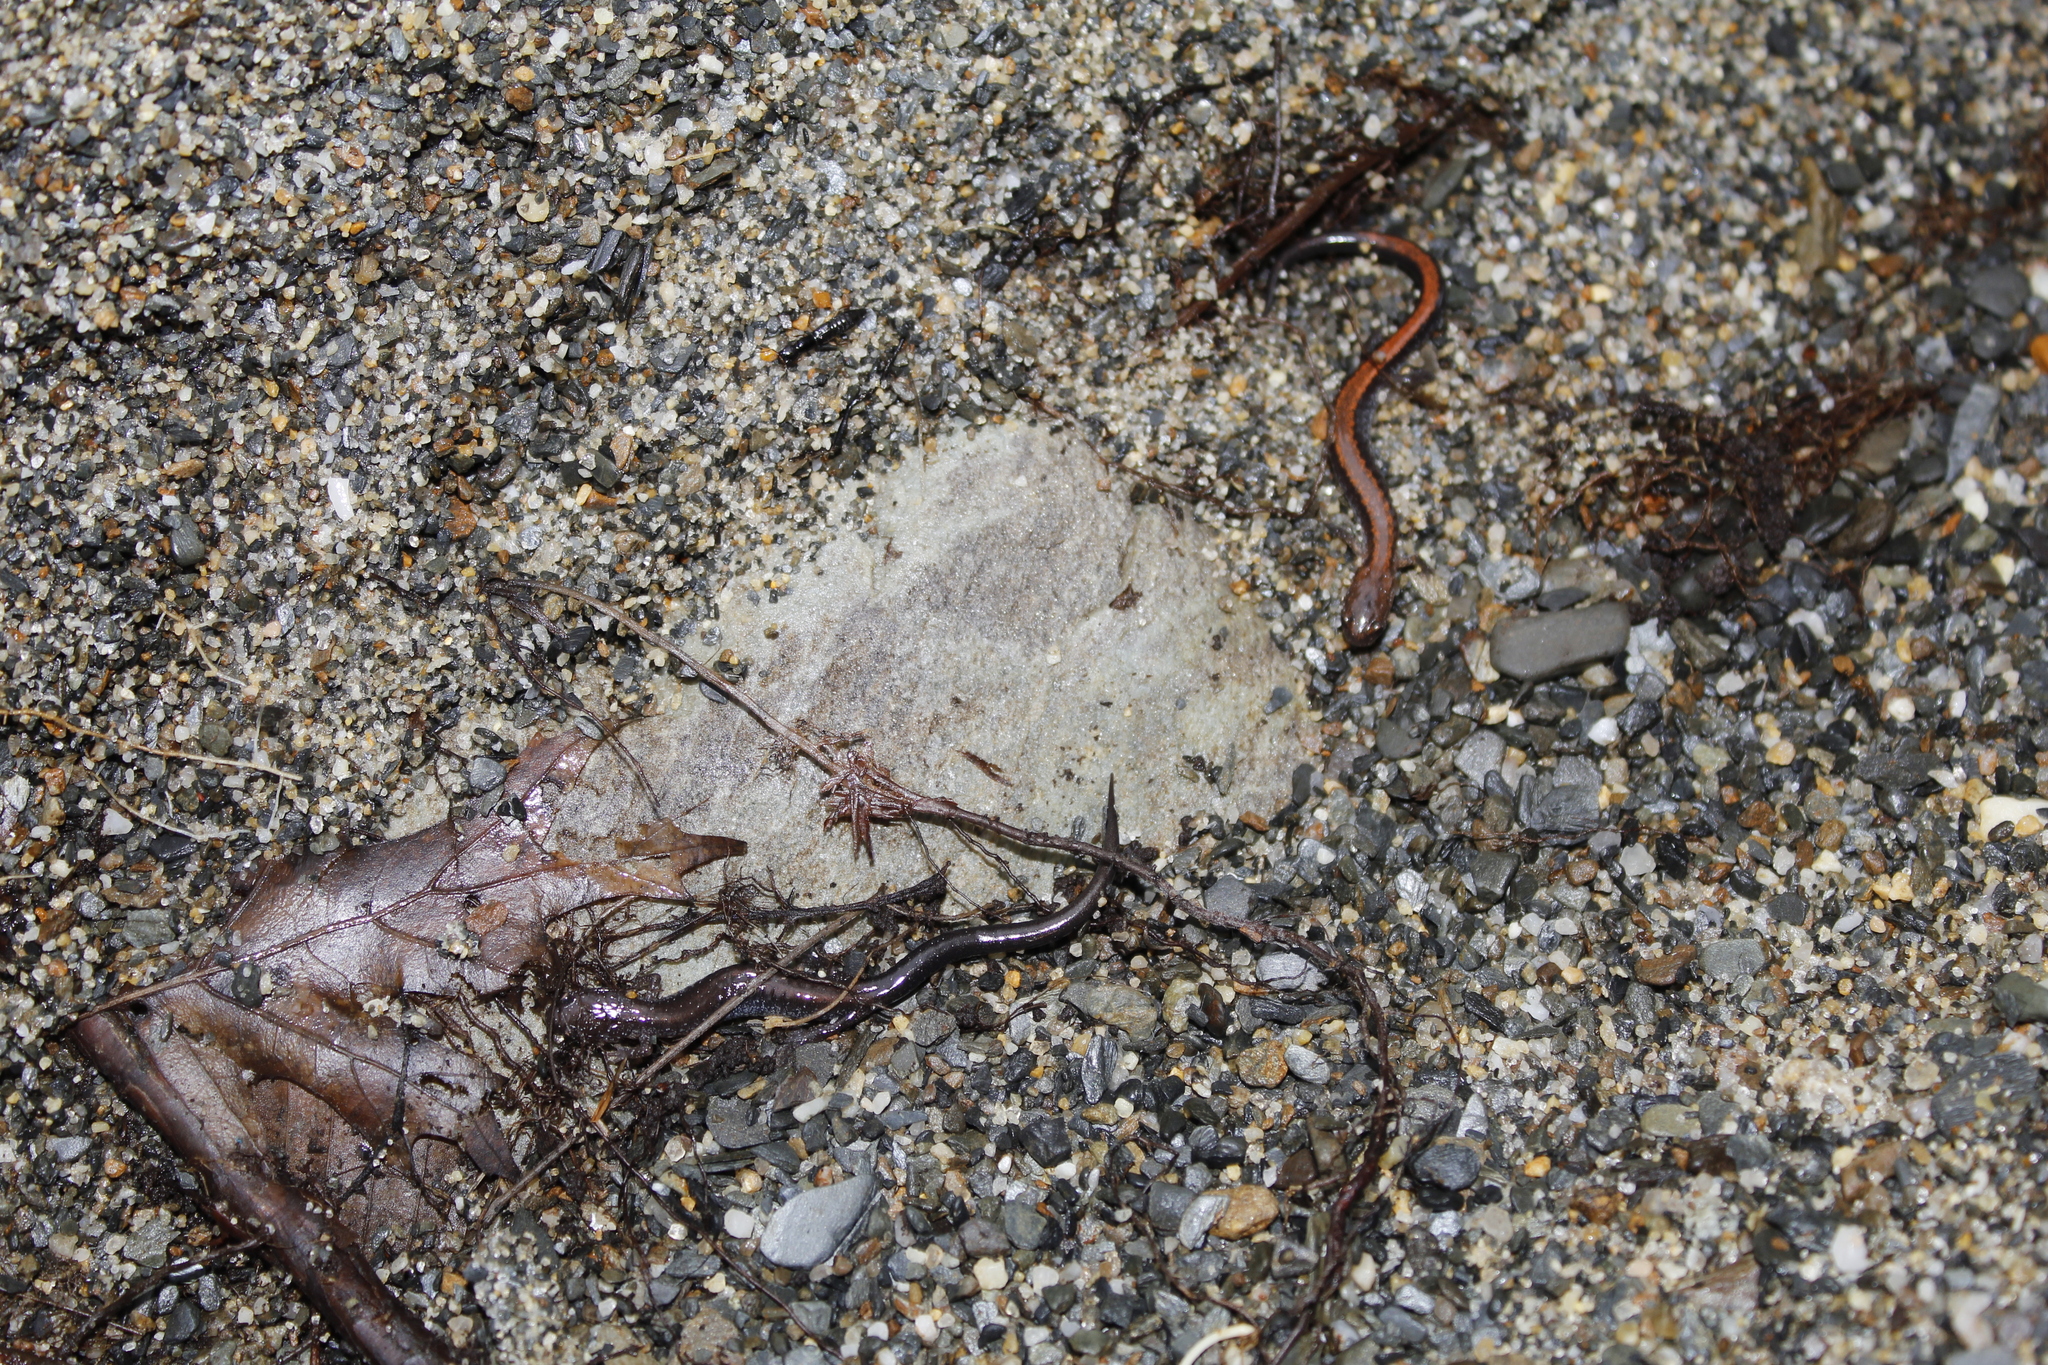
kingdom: Animalia
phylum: Chordata
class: Amphibia
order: Caudata
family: Plethodontidae
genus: Plethodon
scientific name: Plethodon cinereus
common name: Redback salamander
